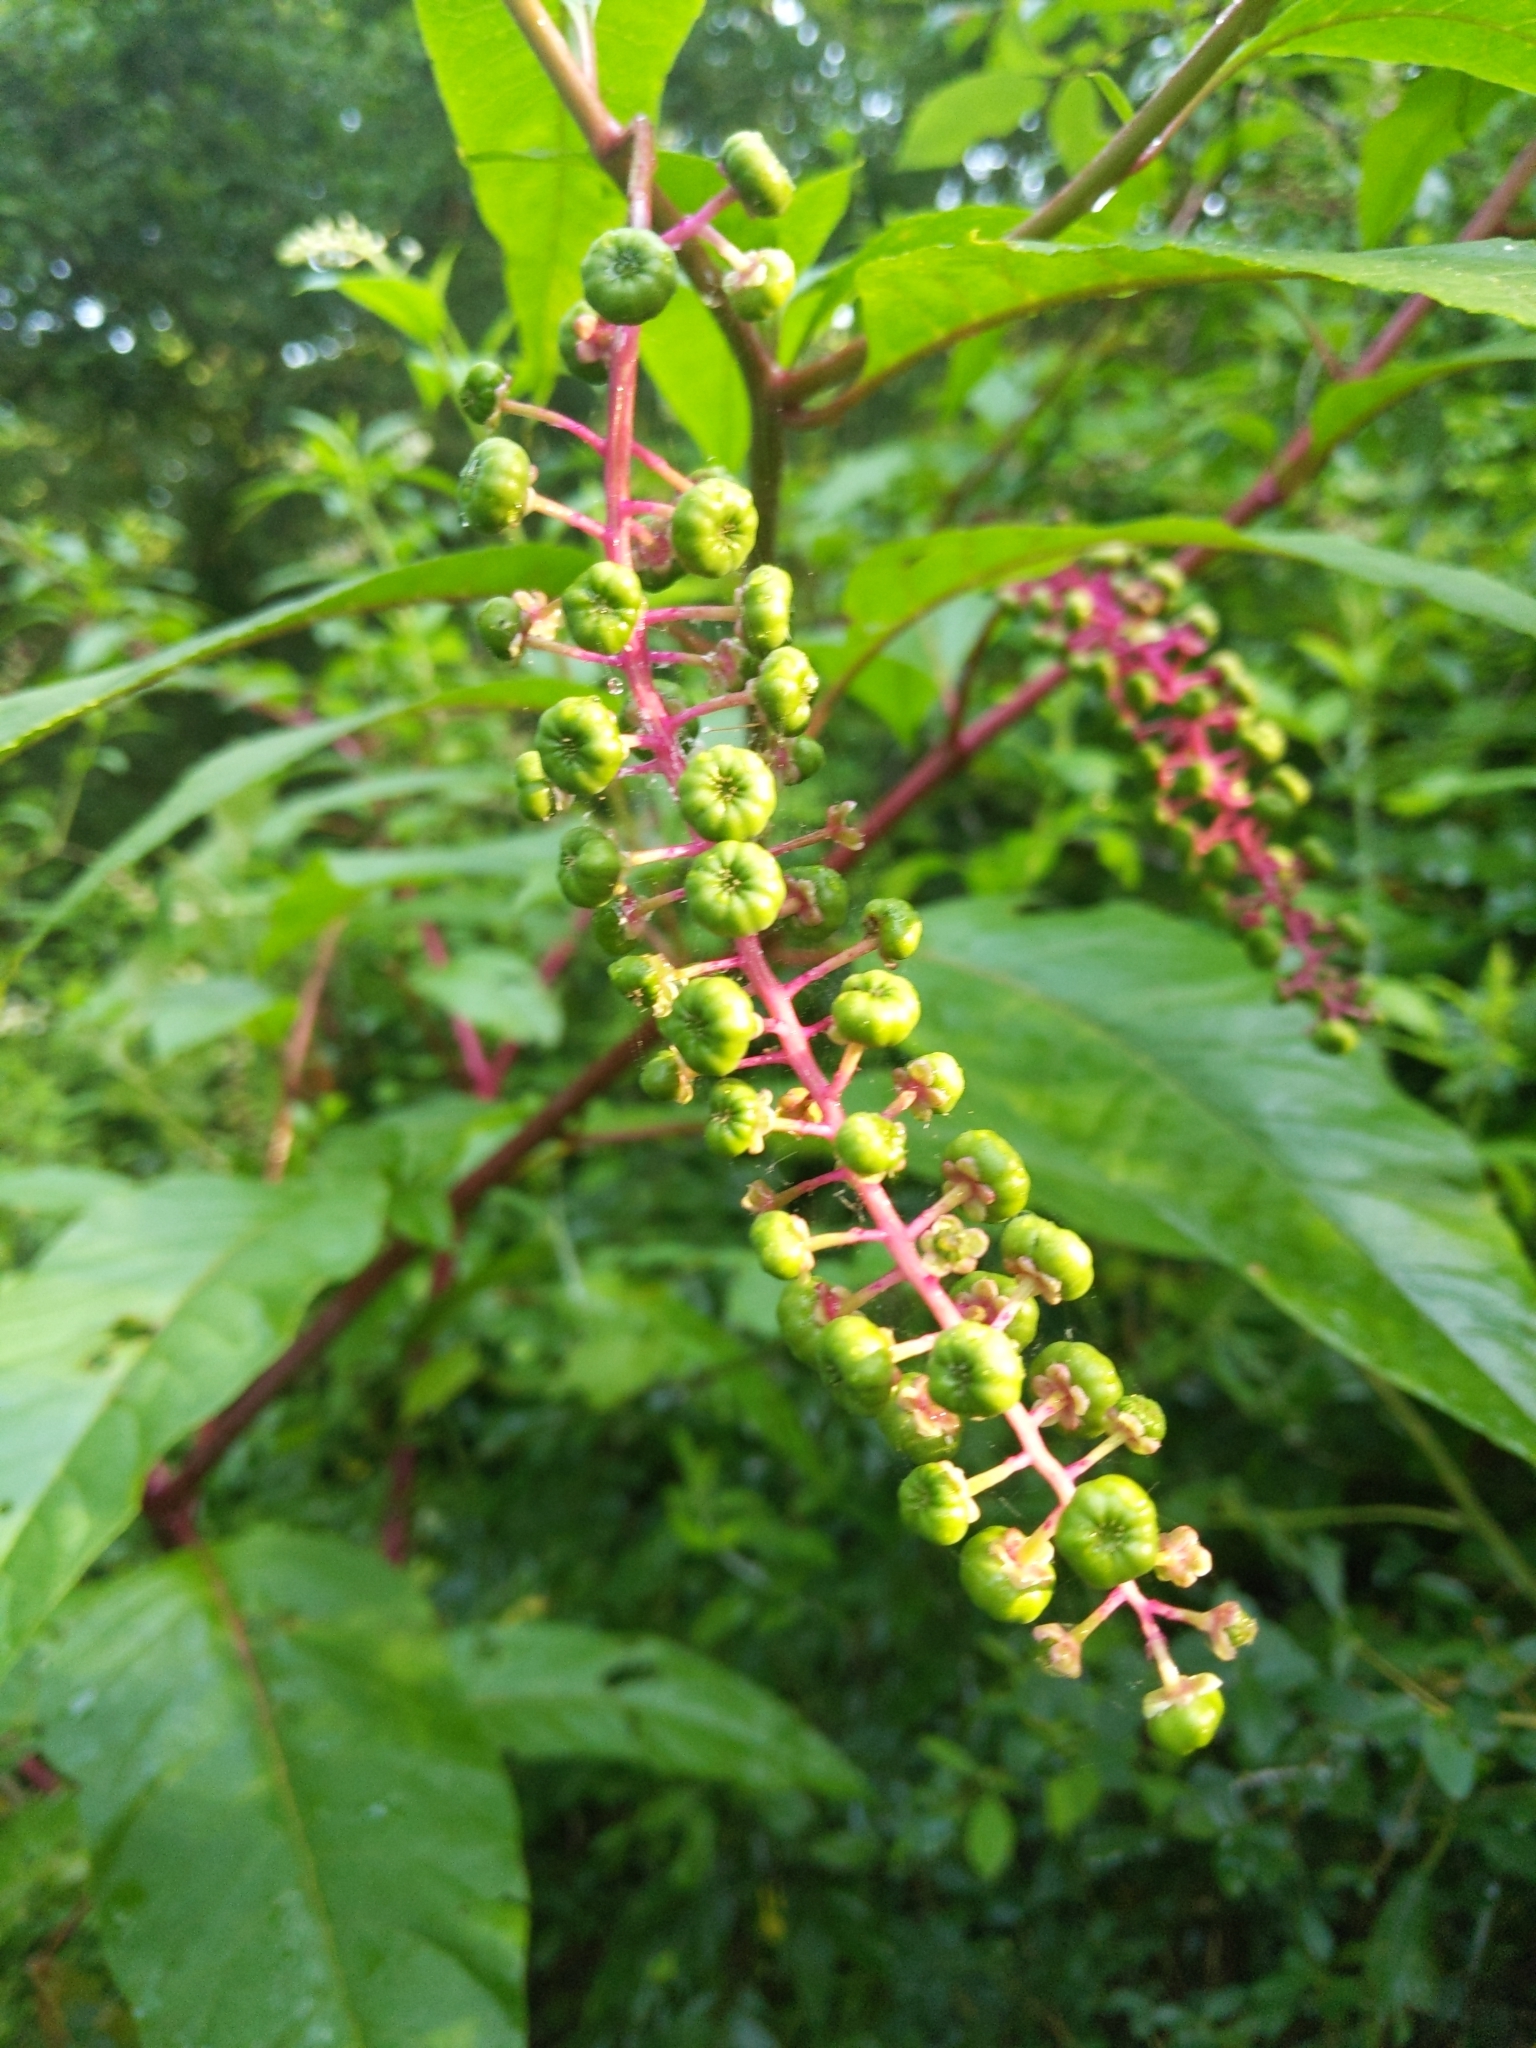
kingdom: Plantae
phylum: Tracheophyta
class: Magnoliopsida
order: Caryophyllales
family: Phytolaccaceae
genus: Phytolacca
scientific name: Phytolacca americana
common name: American pokeweed
